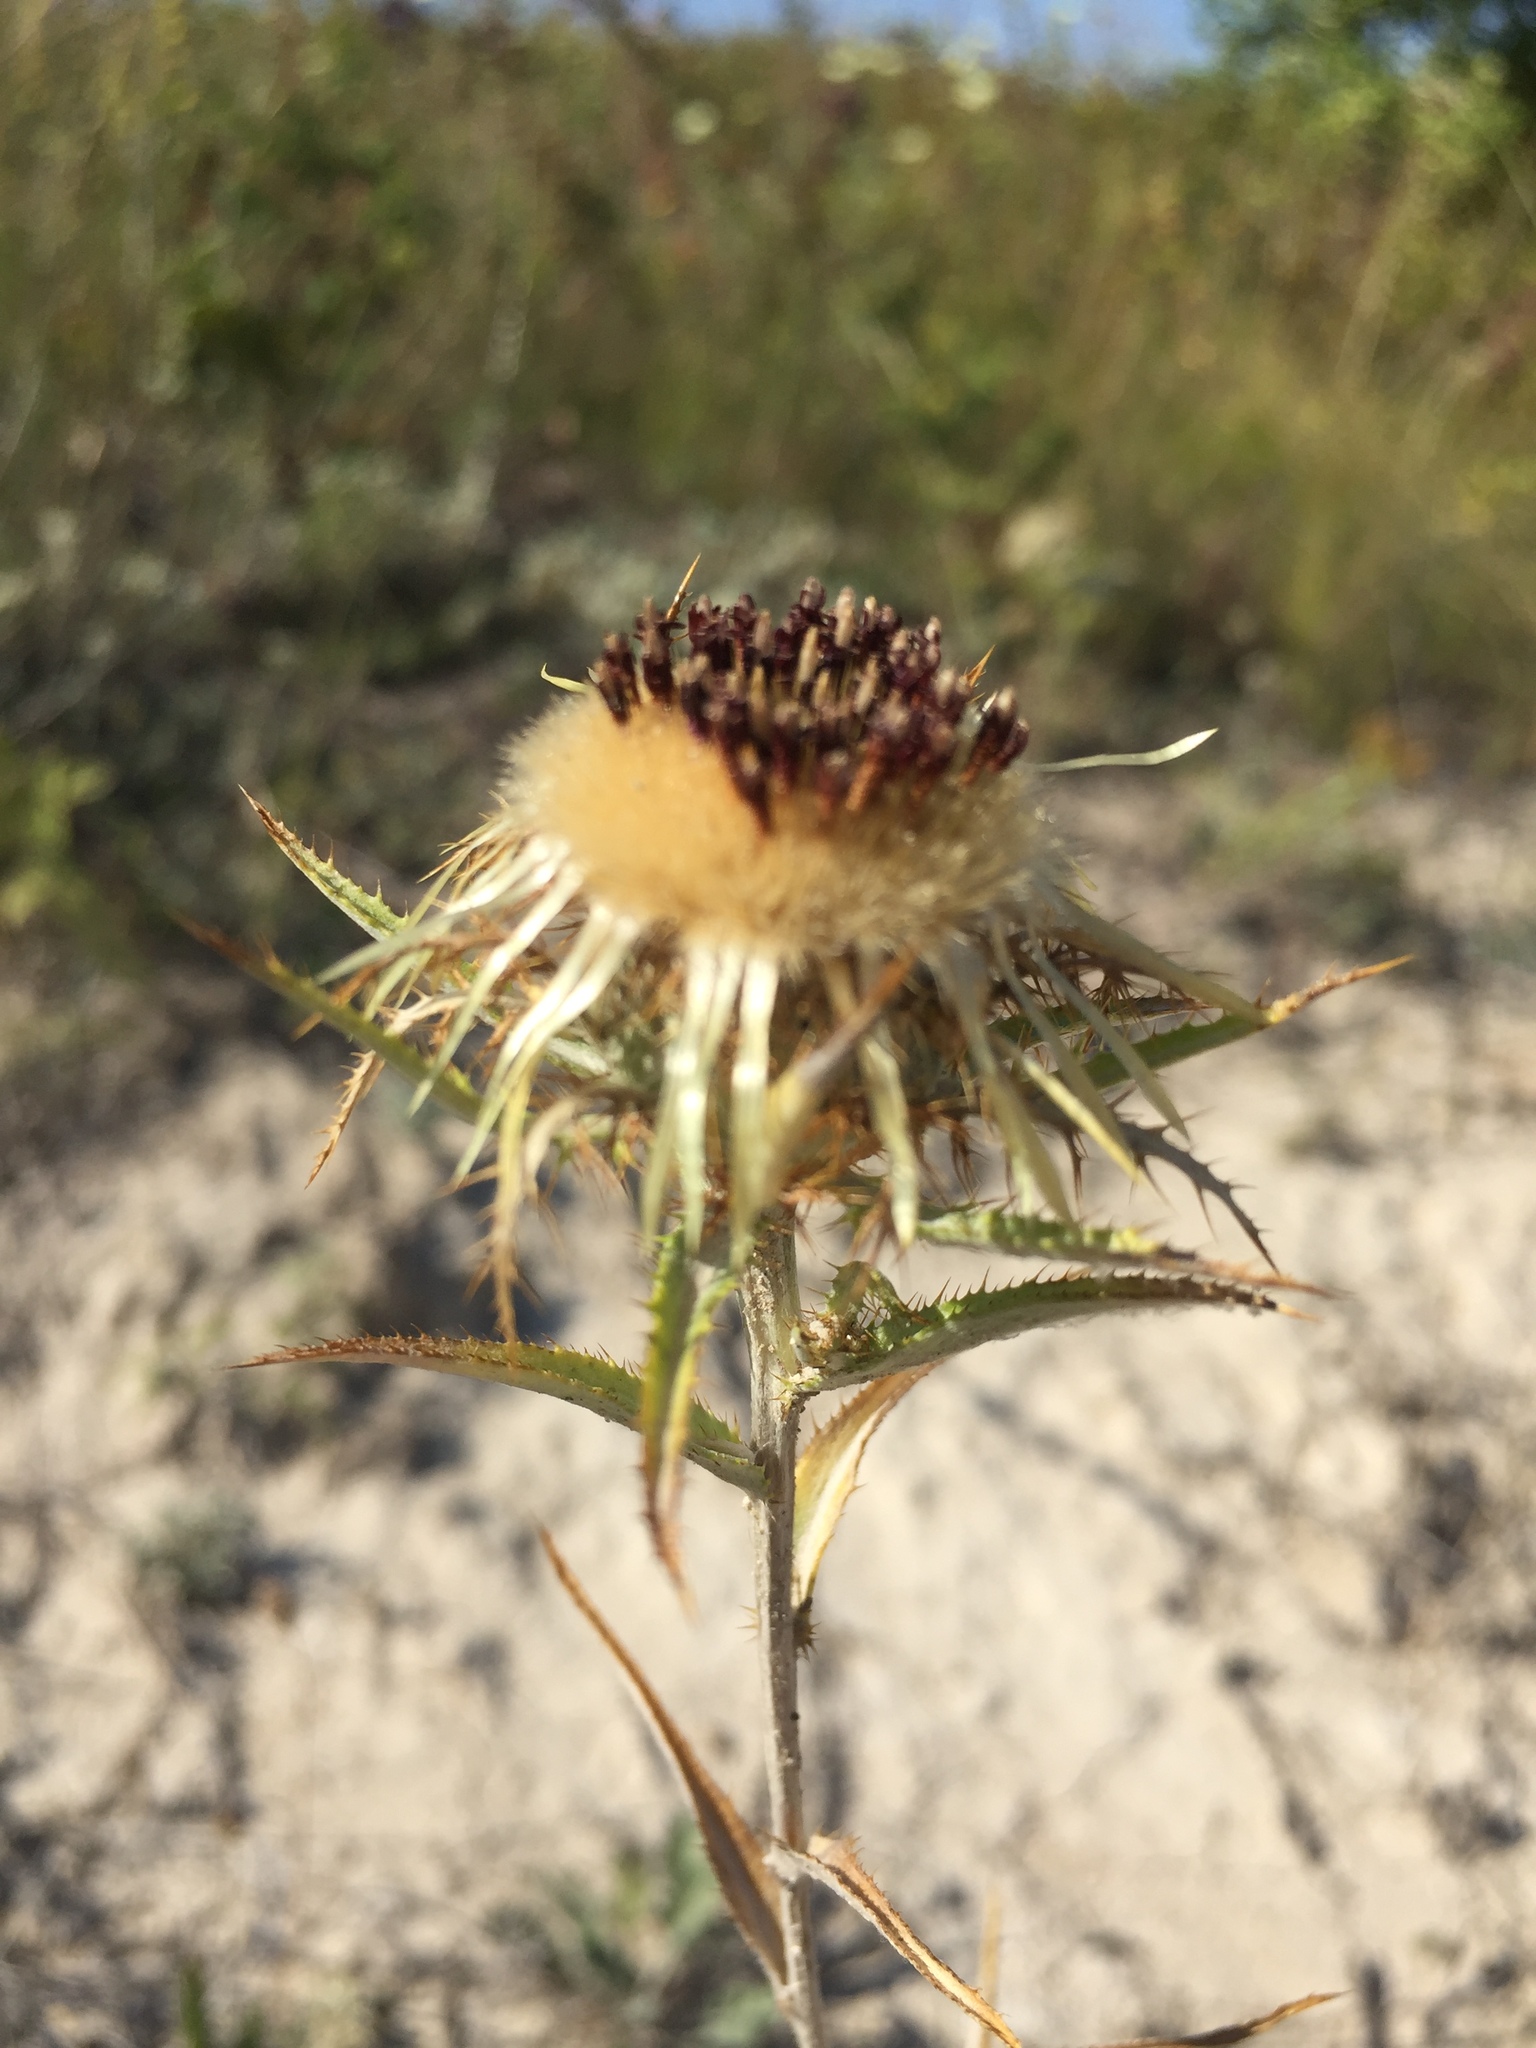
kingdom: Plantae
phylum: Tracheophyta
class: Magnoliopsida
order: Asterales
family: Asteraceae
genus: Carlina
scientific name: Carlina biebersteinii
